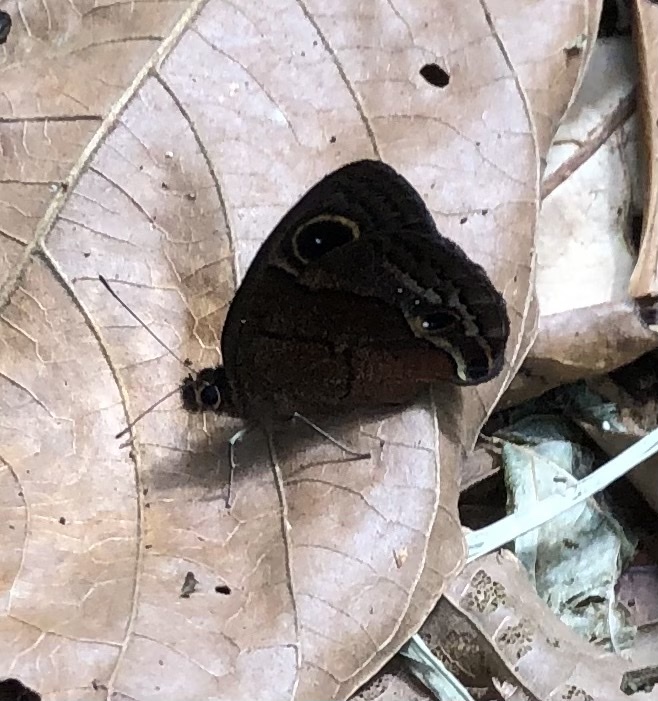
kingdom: Animalia
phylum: Arthropoda
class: Insecta
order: Lepidoptera
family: Nymphalidae
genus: Calisto
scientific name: Calisto nubila
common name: Puerto rican calisto
